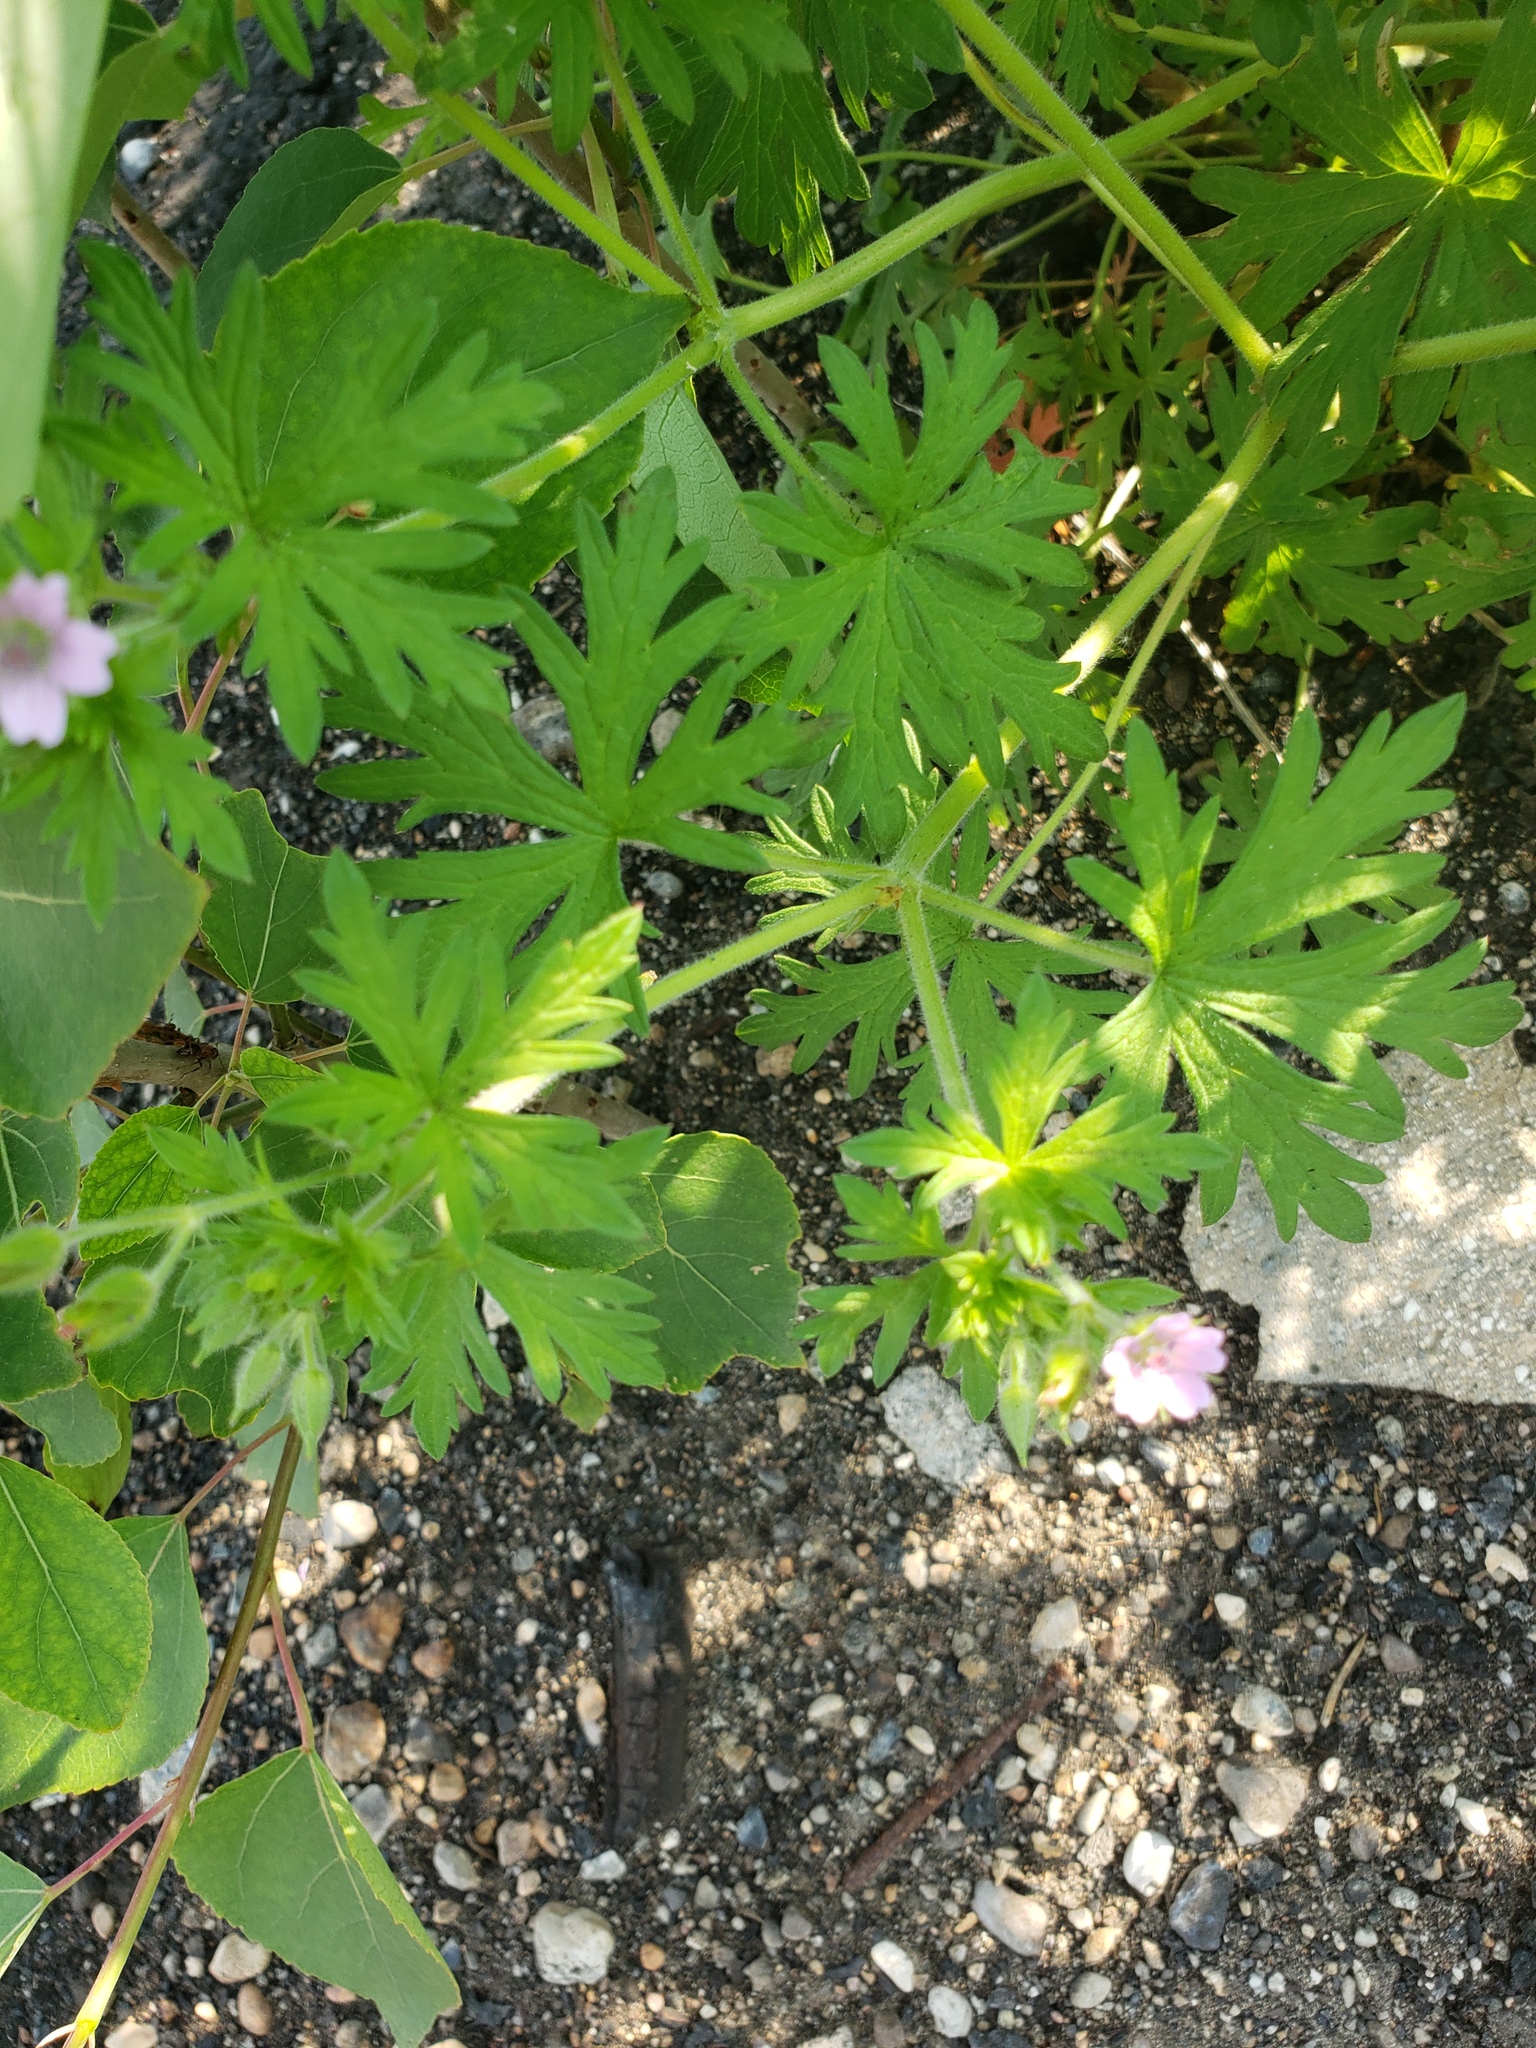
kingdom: Plantae
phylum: Tracheophyta
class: Magnoliopsida
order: Geraniales
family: Geraniaceae
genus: Geranium
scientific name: Geranium bicknellii
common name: Bicknell's cranesbill
